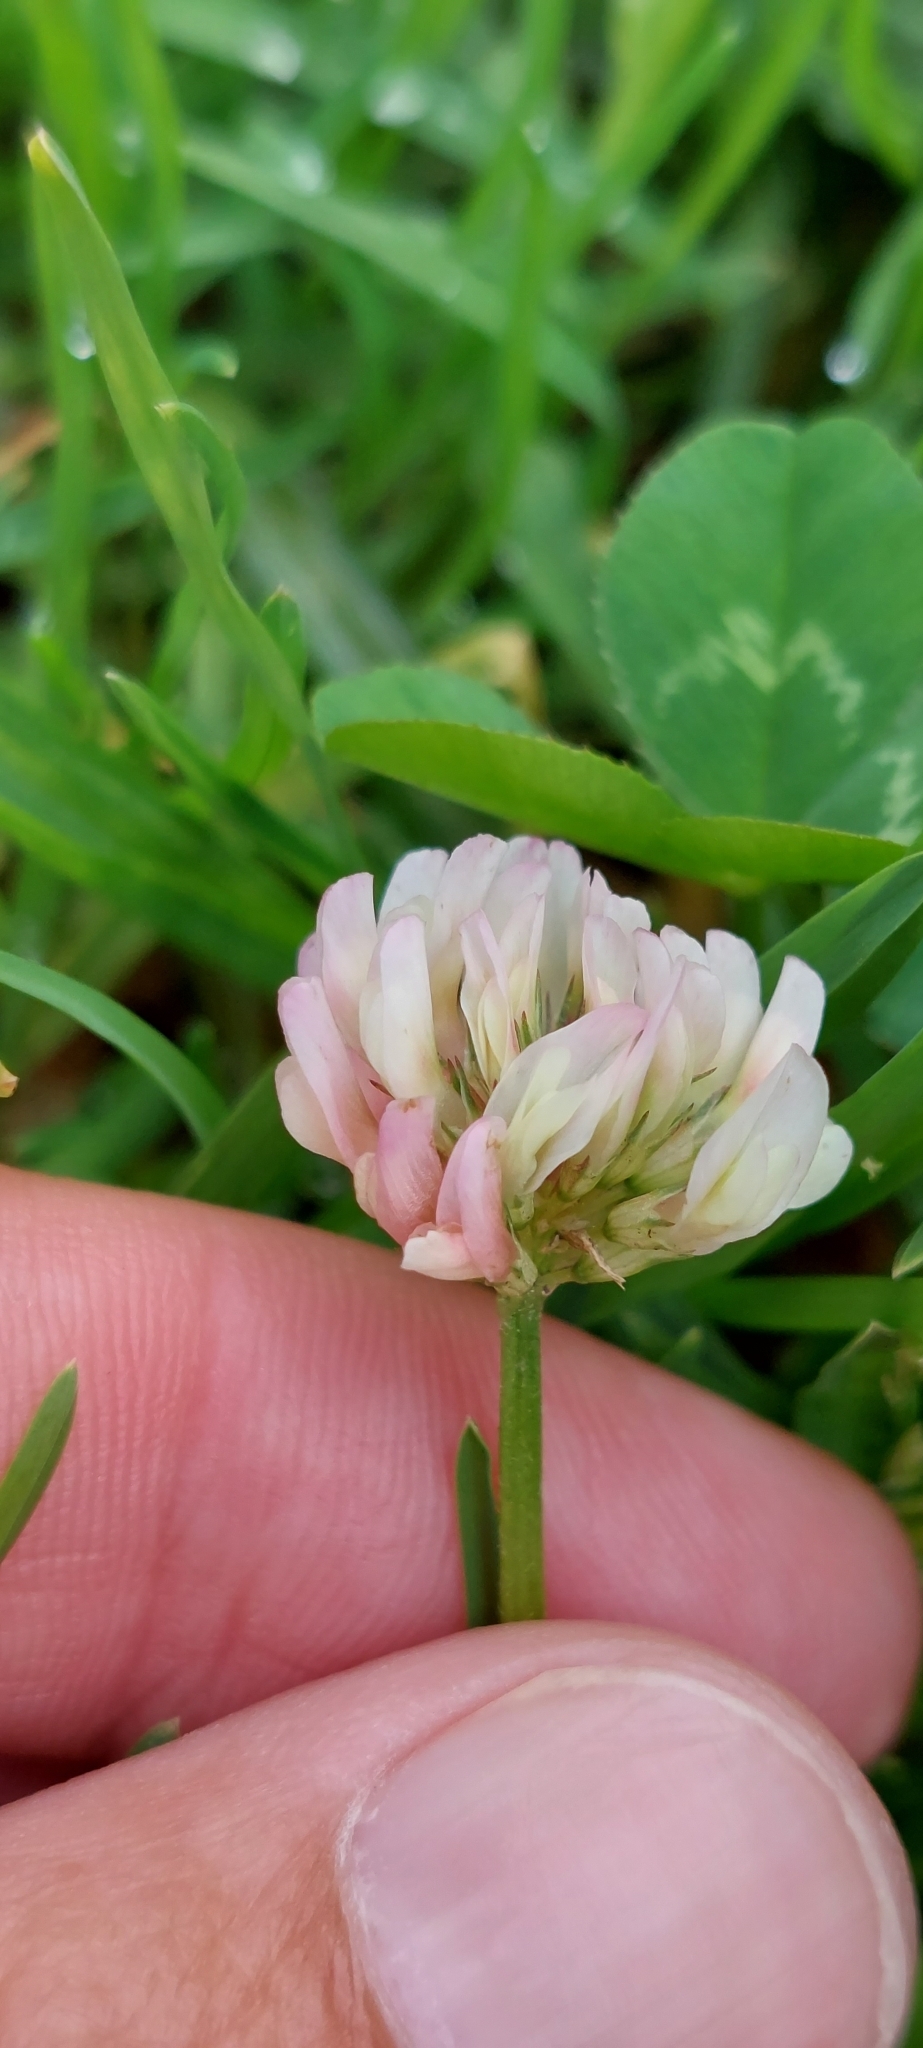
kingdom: Plantae
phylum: Tracheophyta
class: Magnoliopsida
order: Fabales
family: Fabaceae
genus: Trifolium
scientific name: Trifolium repens
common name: White clover
